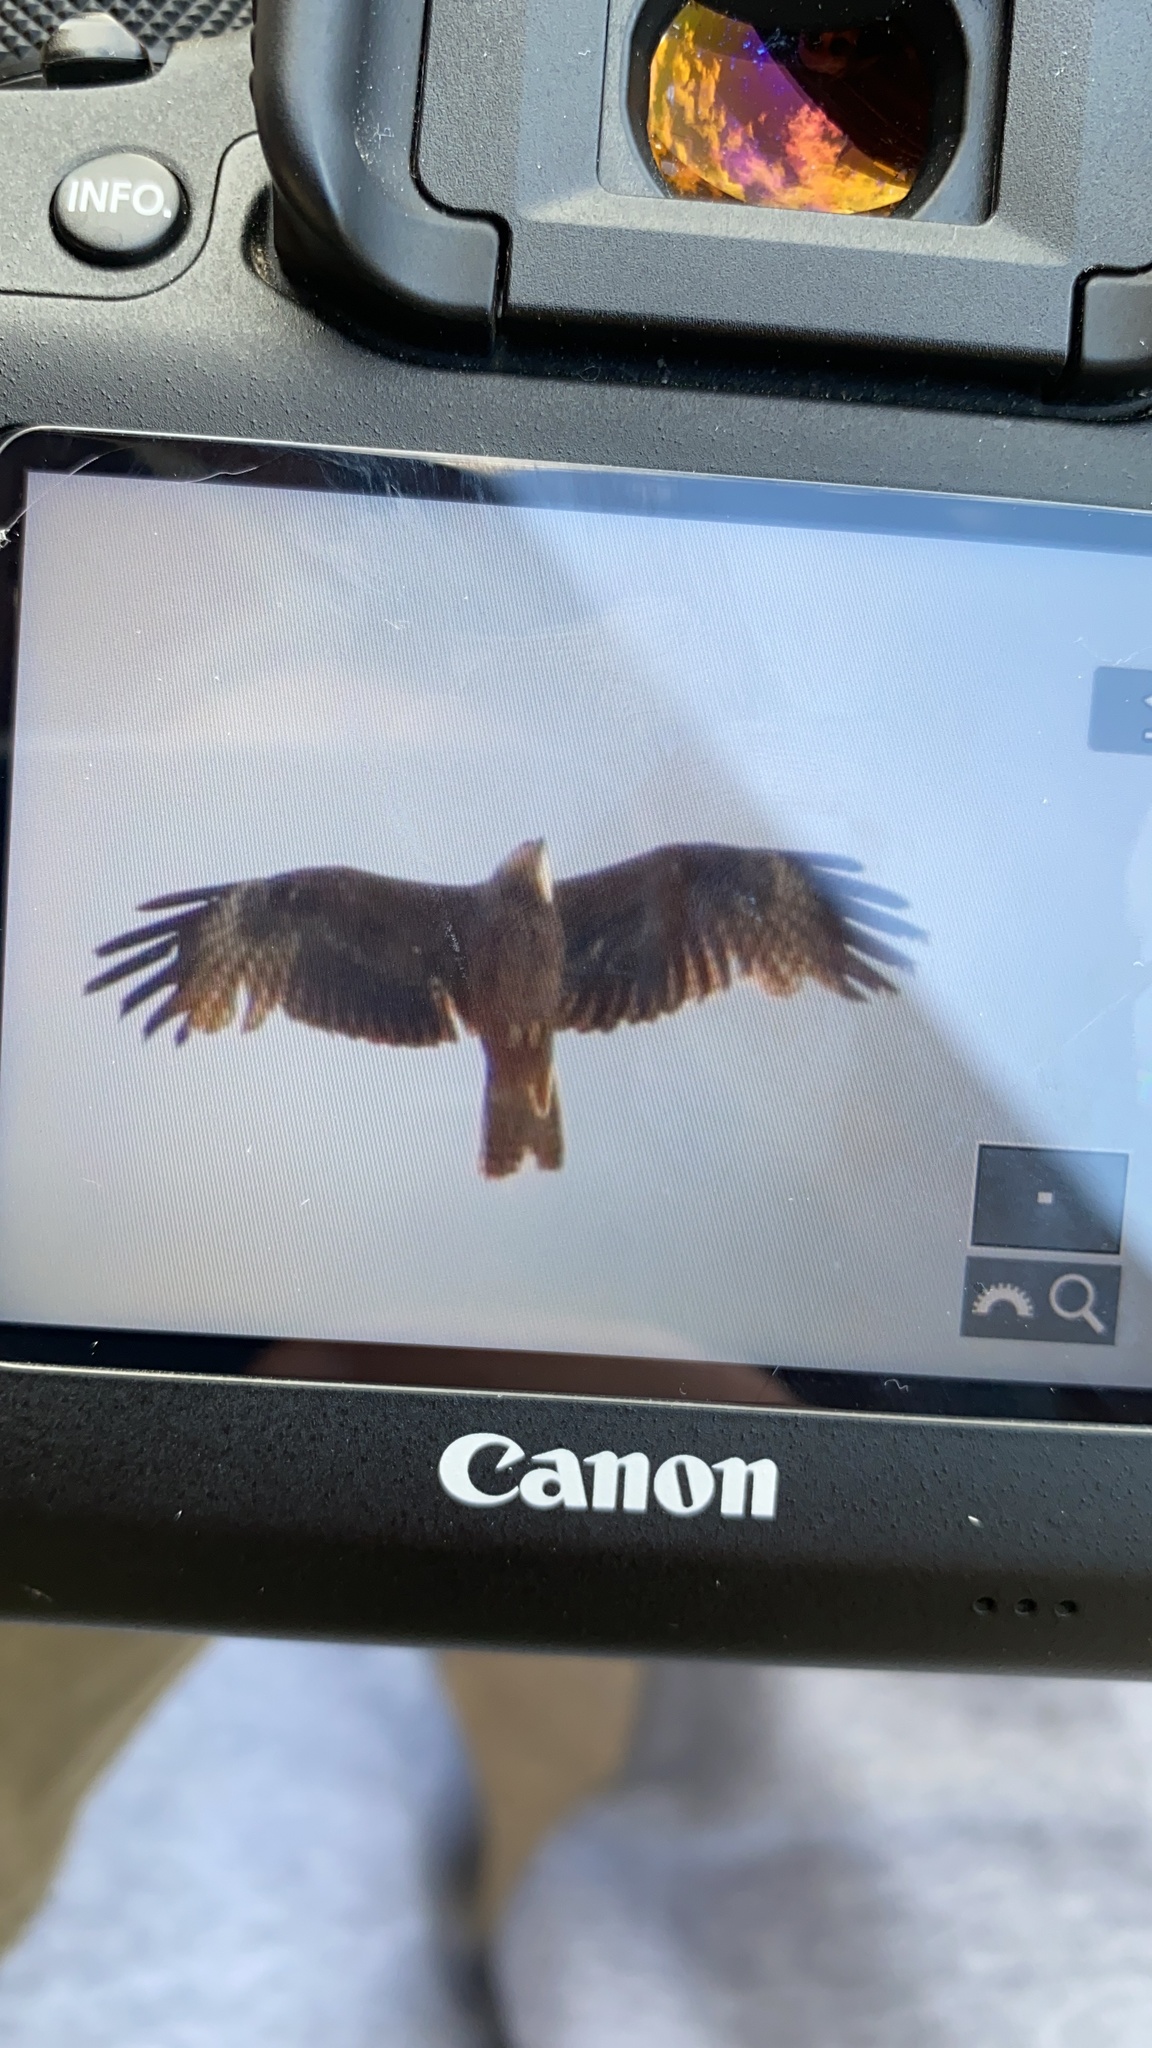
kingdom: Animalia
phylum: Chordata
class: Aves
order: Accipitriformes
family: Accipitridae
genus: Milvus
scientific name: Milvus migrans
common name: Black kite
